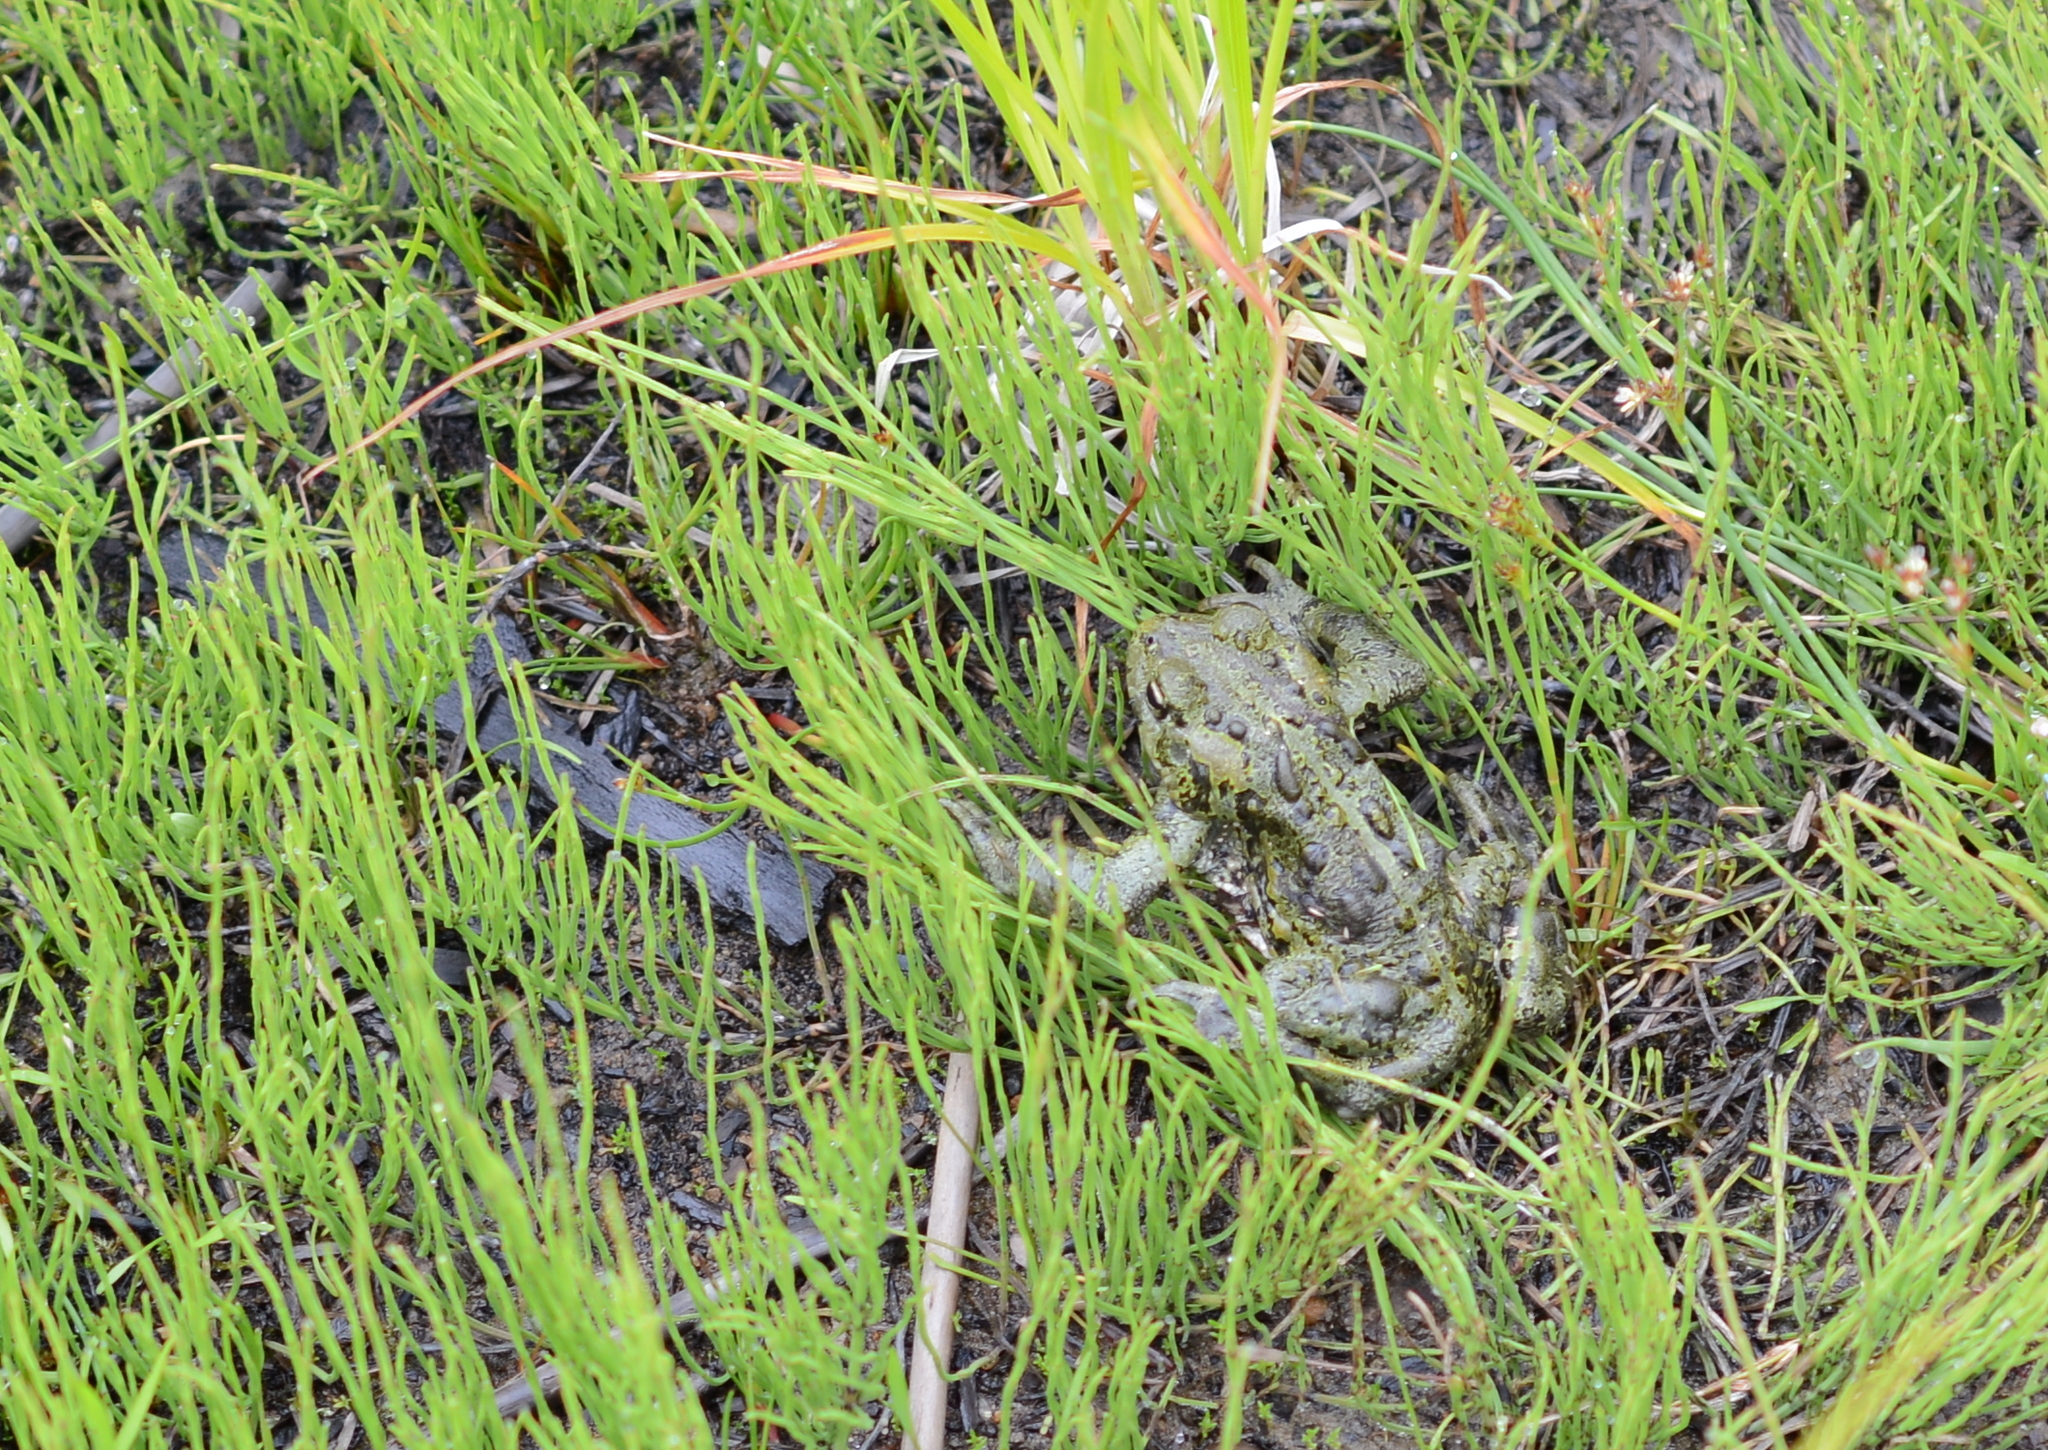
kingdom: Animalia
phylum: Chordata
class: Amphibia
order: Anura
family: Bufonidae
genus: Anaxyrus
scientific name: Anaxyrus boreas
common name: Western toad
